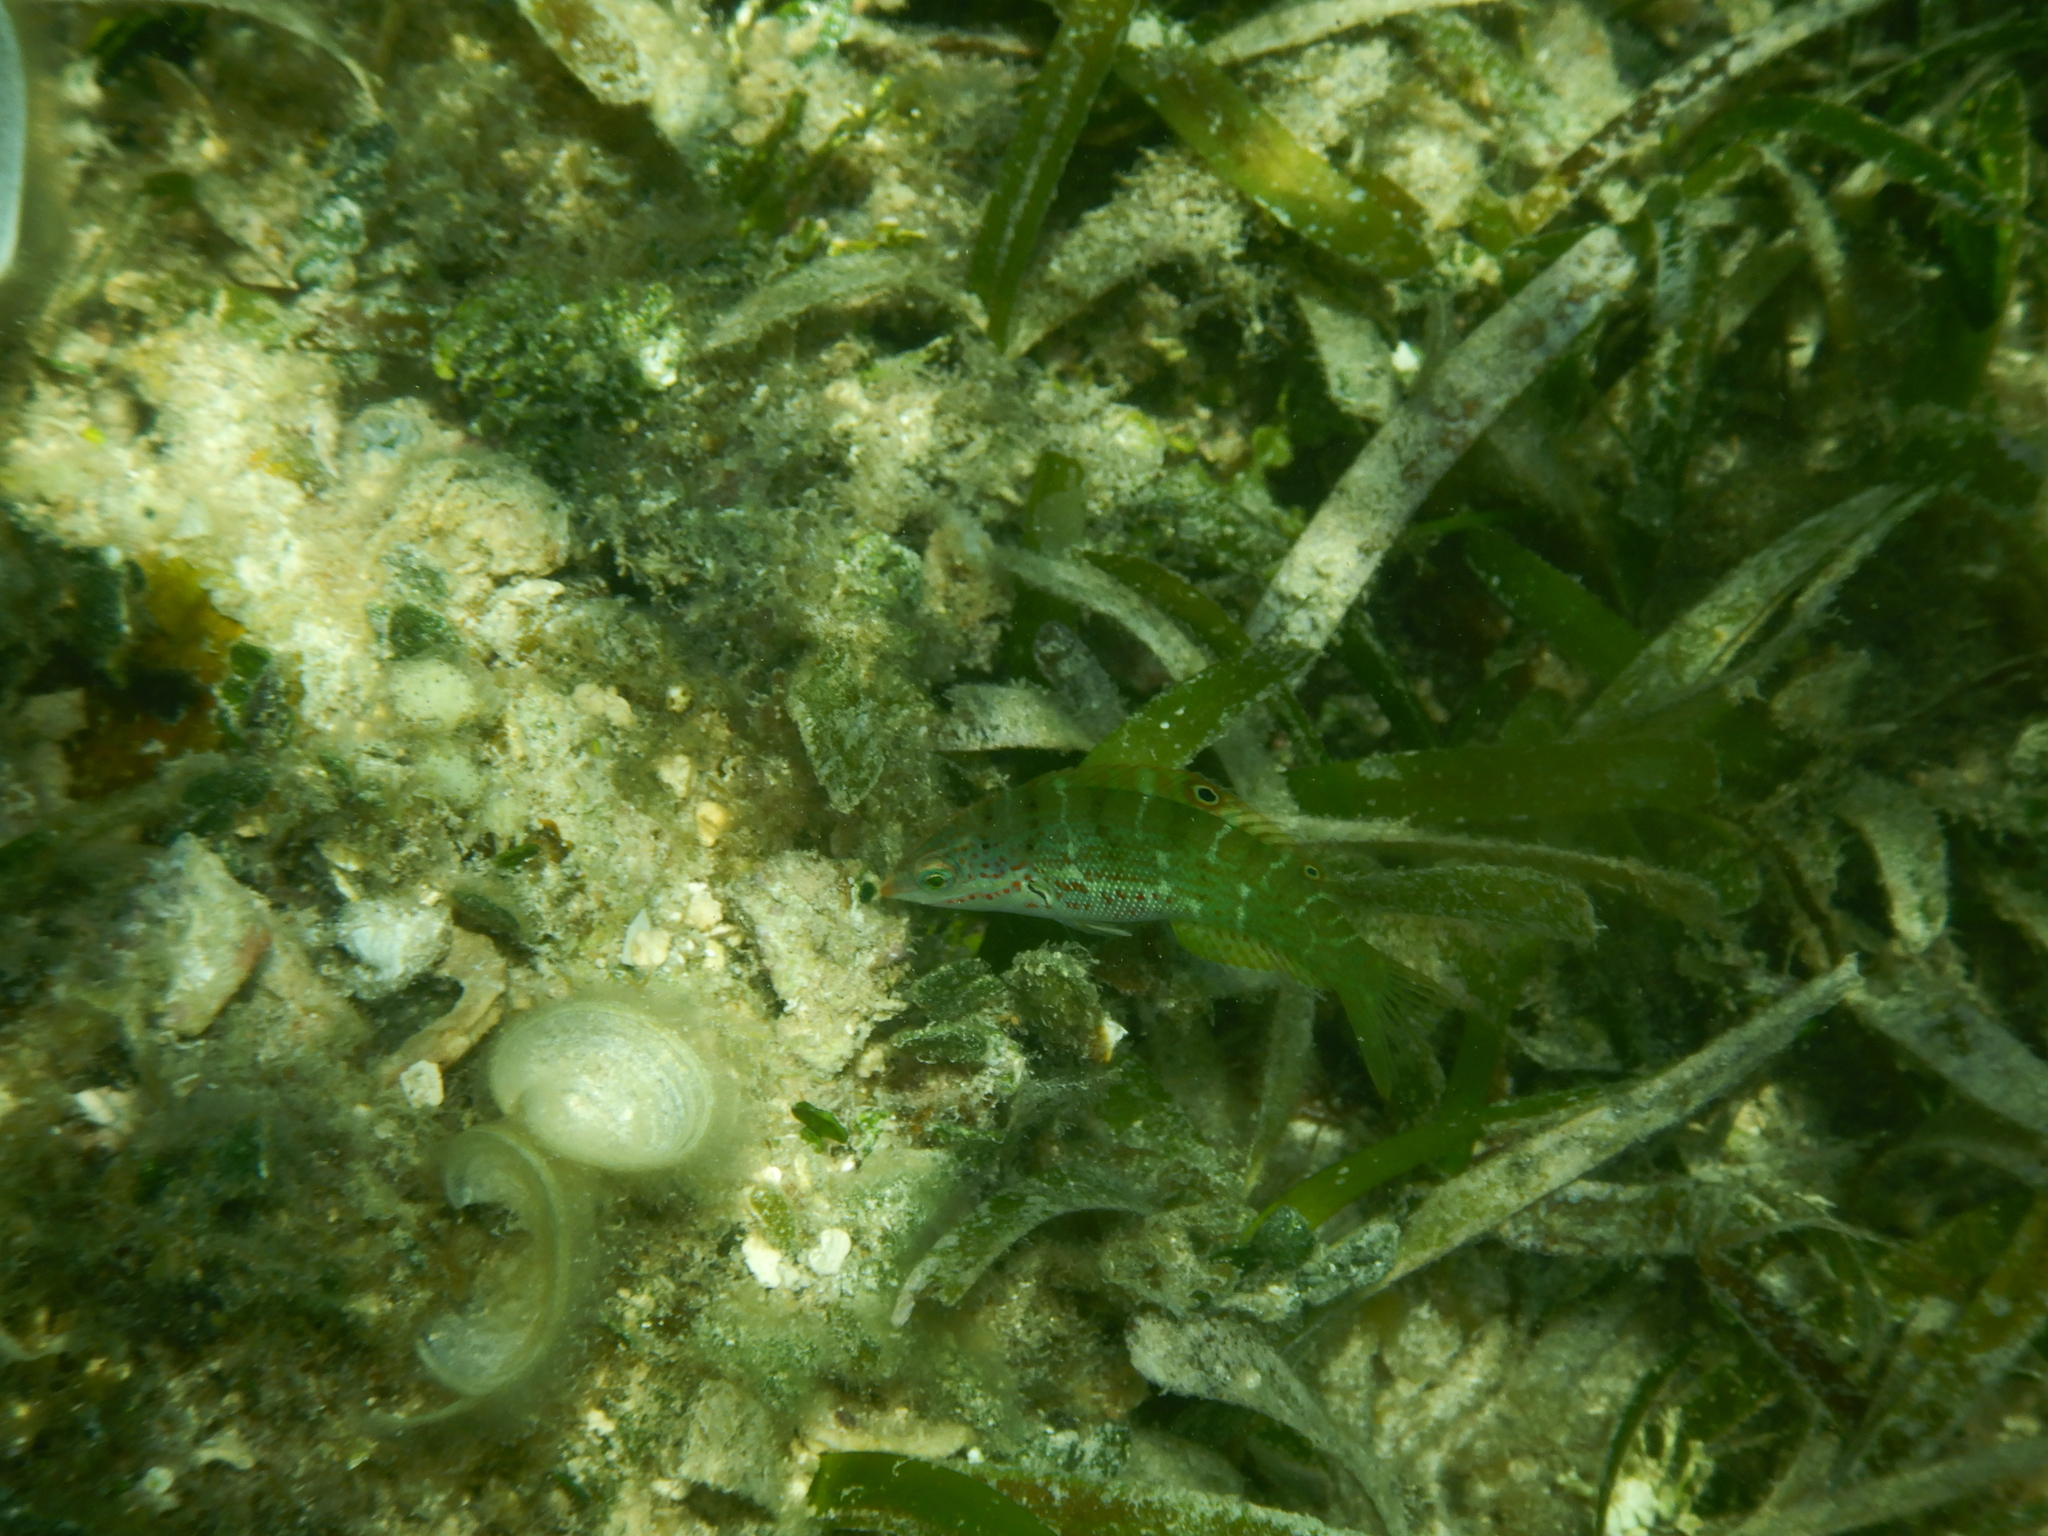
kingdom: Animalia
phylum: Chordata
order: Perciformes
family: Labridae
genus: Coris
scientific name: Coris batuensis
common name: Batu coris
